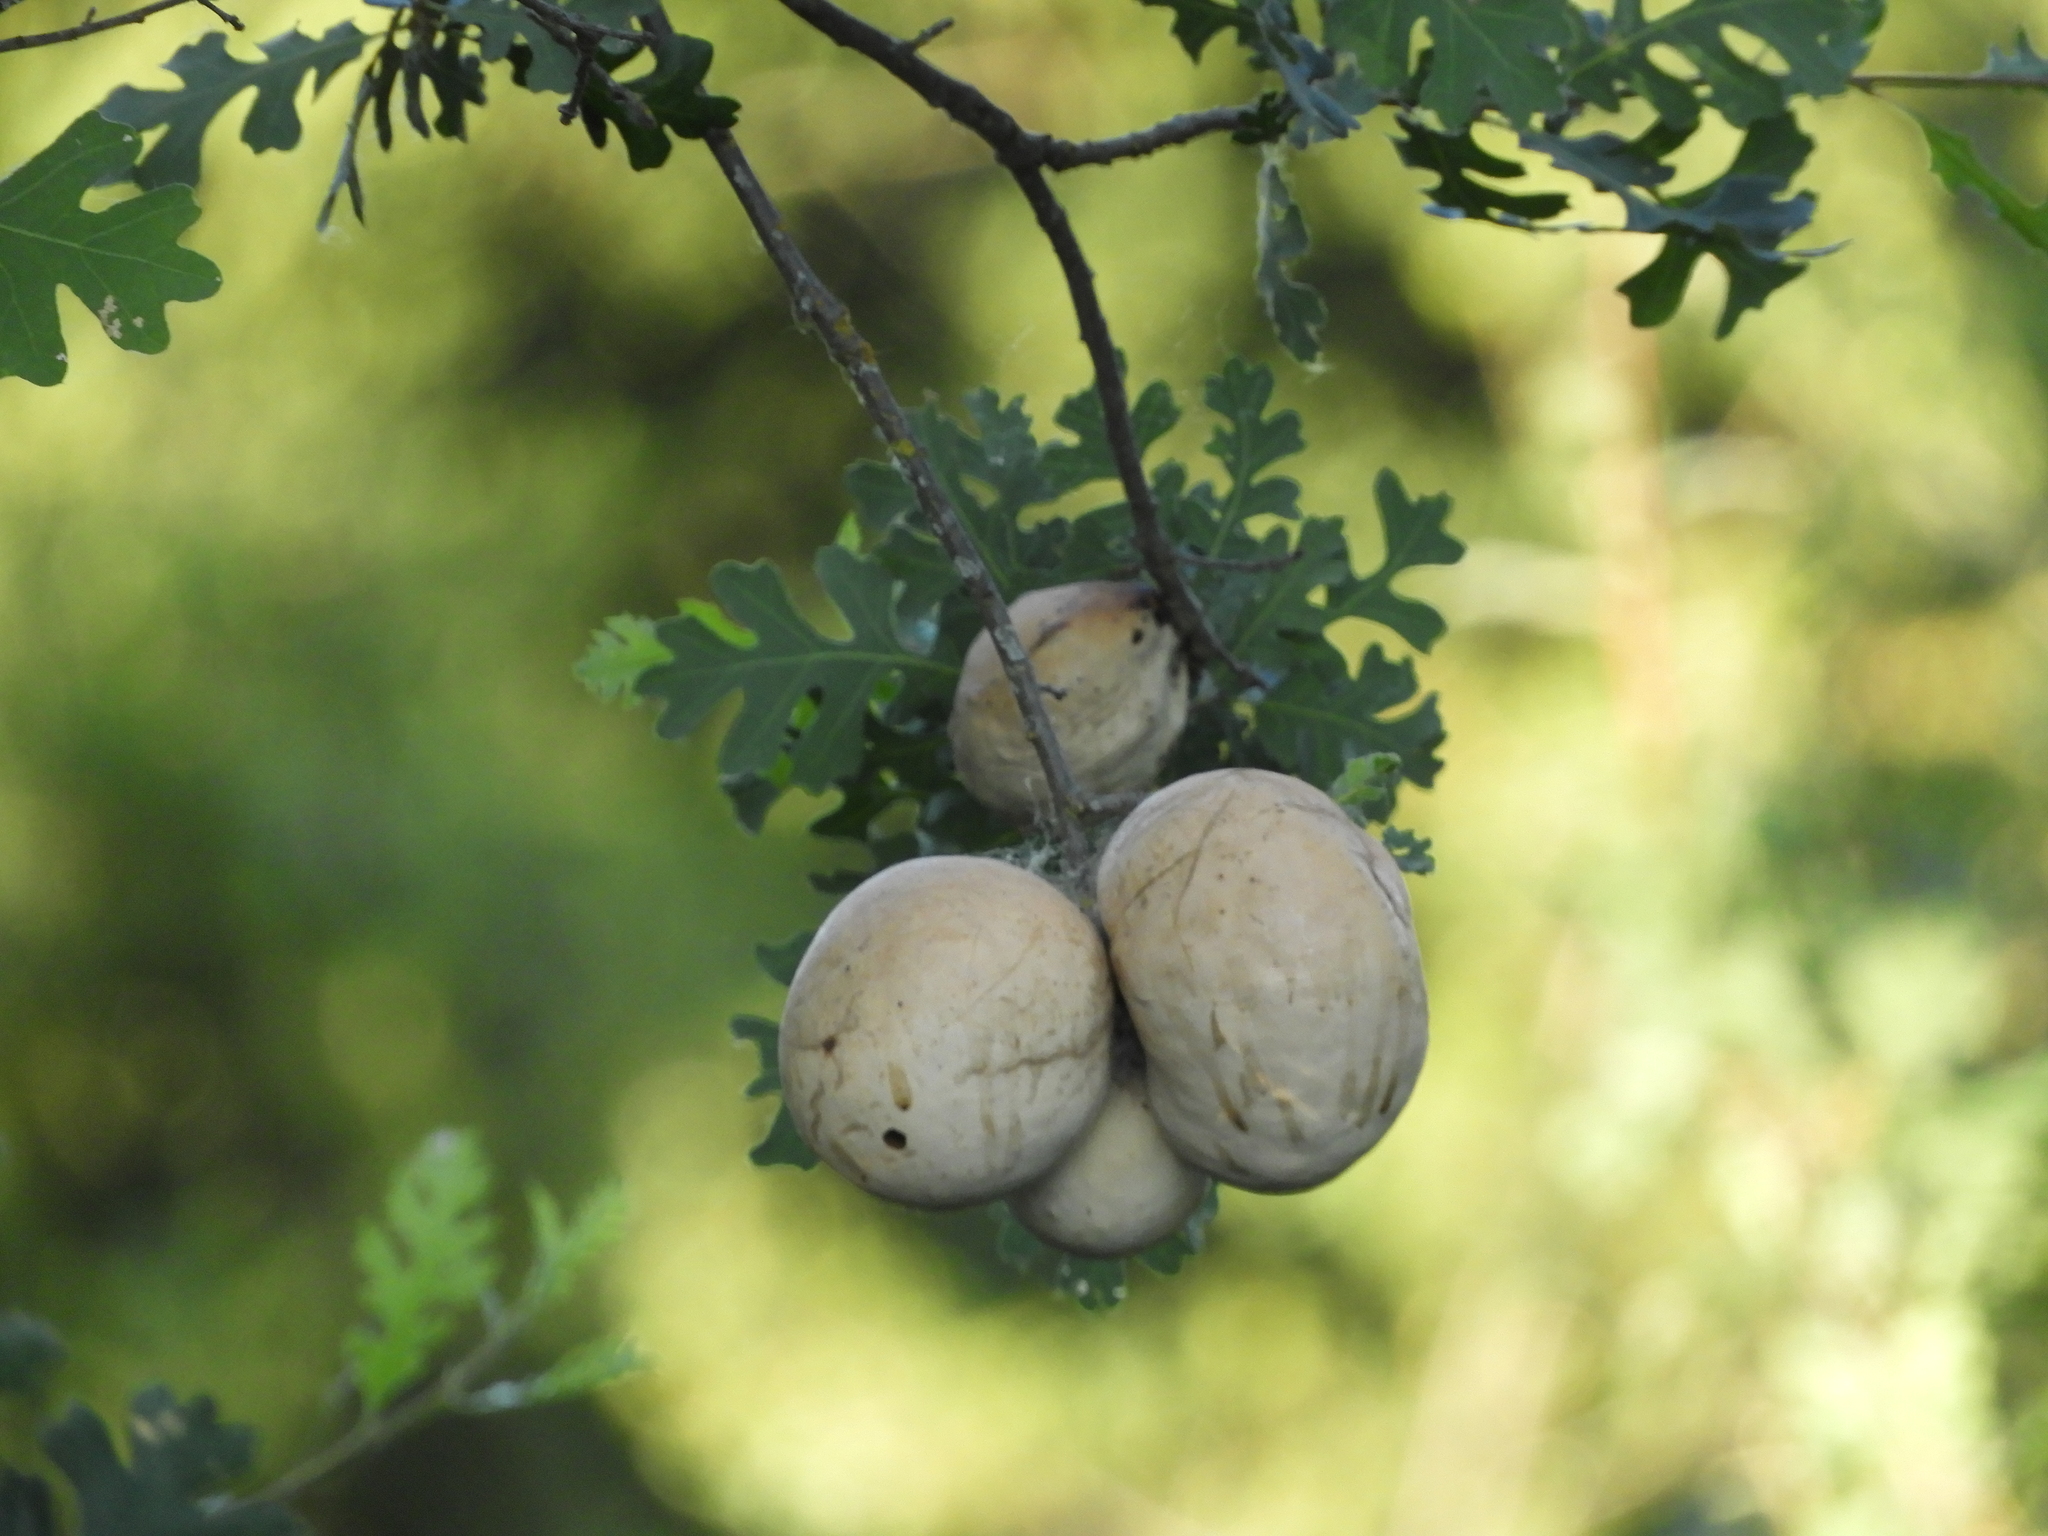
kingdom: Animalia
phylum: Arthropoda
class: Insecta
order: Hymenoptera
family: Cynipidae
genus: Andricus
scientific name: Andricus quercuscalifornicus
